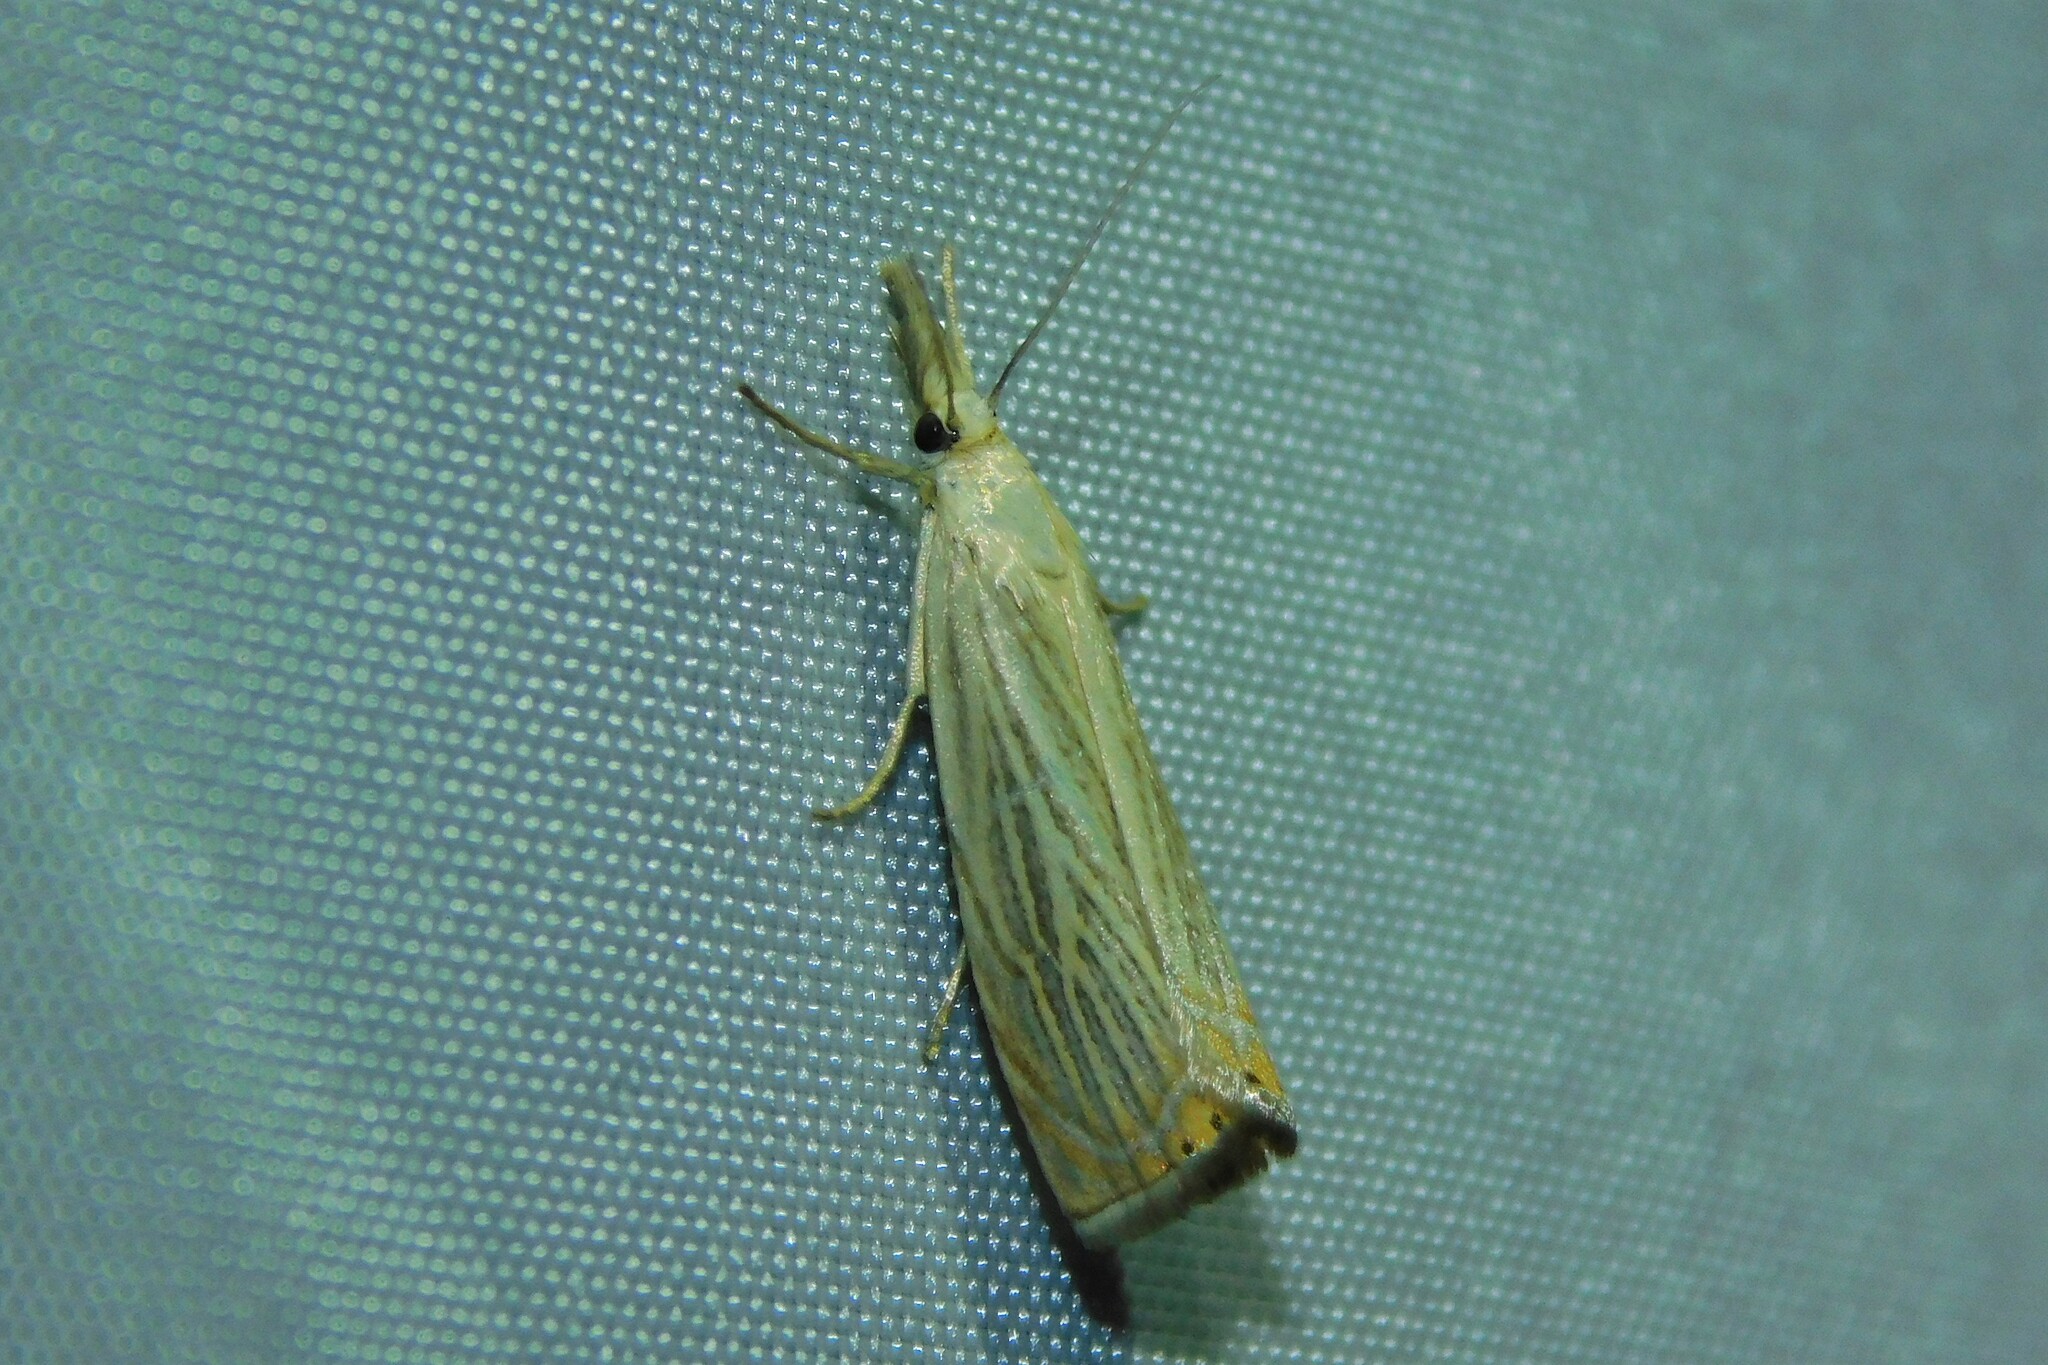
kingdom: Animalia
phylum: Arthropoda
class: Insecta
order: Lepidoptera
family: Crambidae
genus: Chrysoteuchia
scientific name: Chrysoteuchia culmella
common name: Garden grass-veneer
